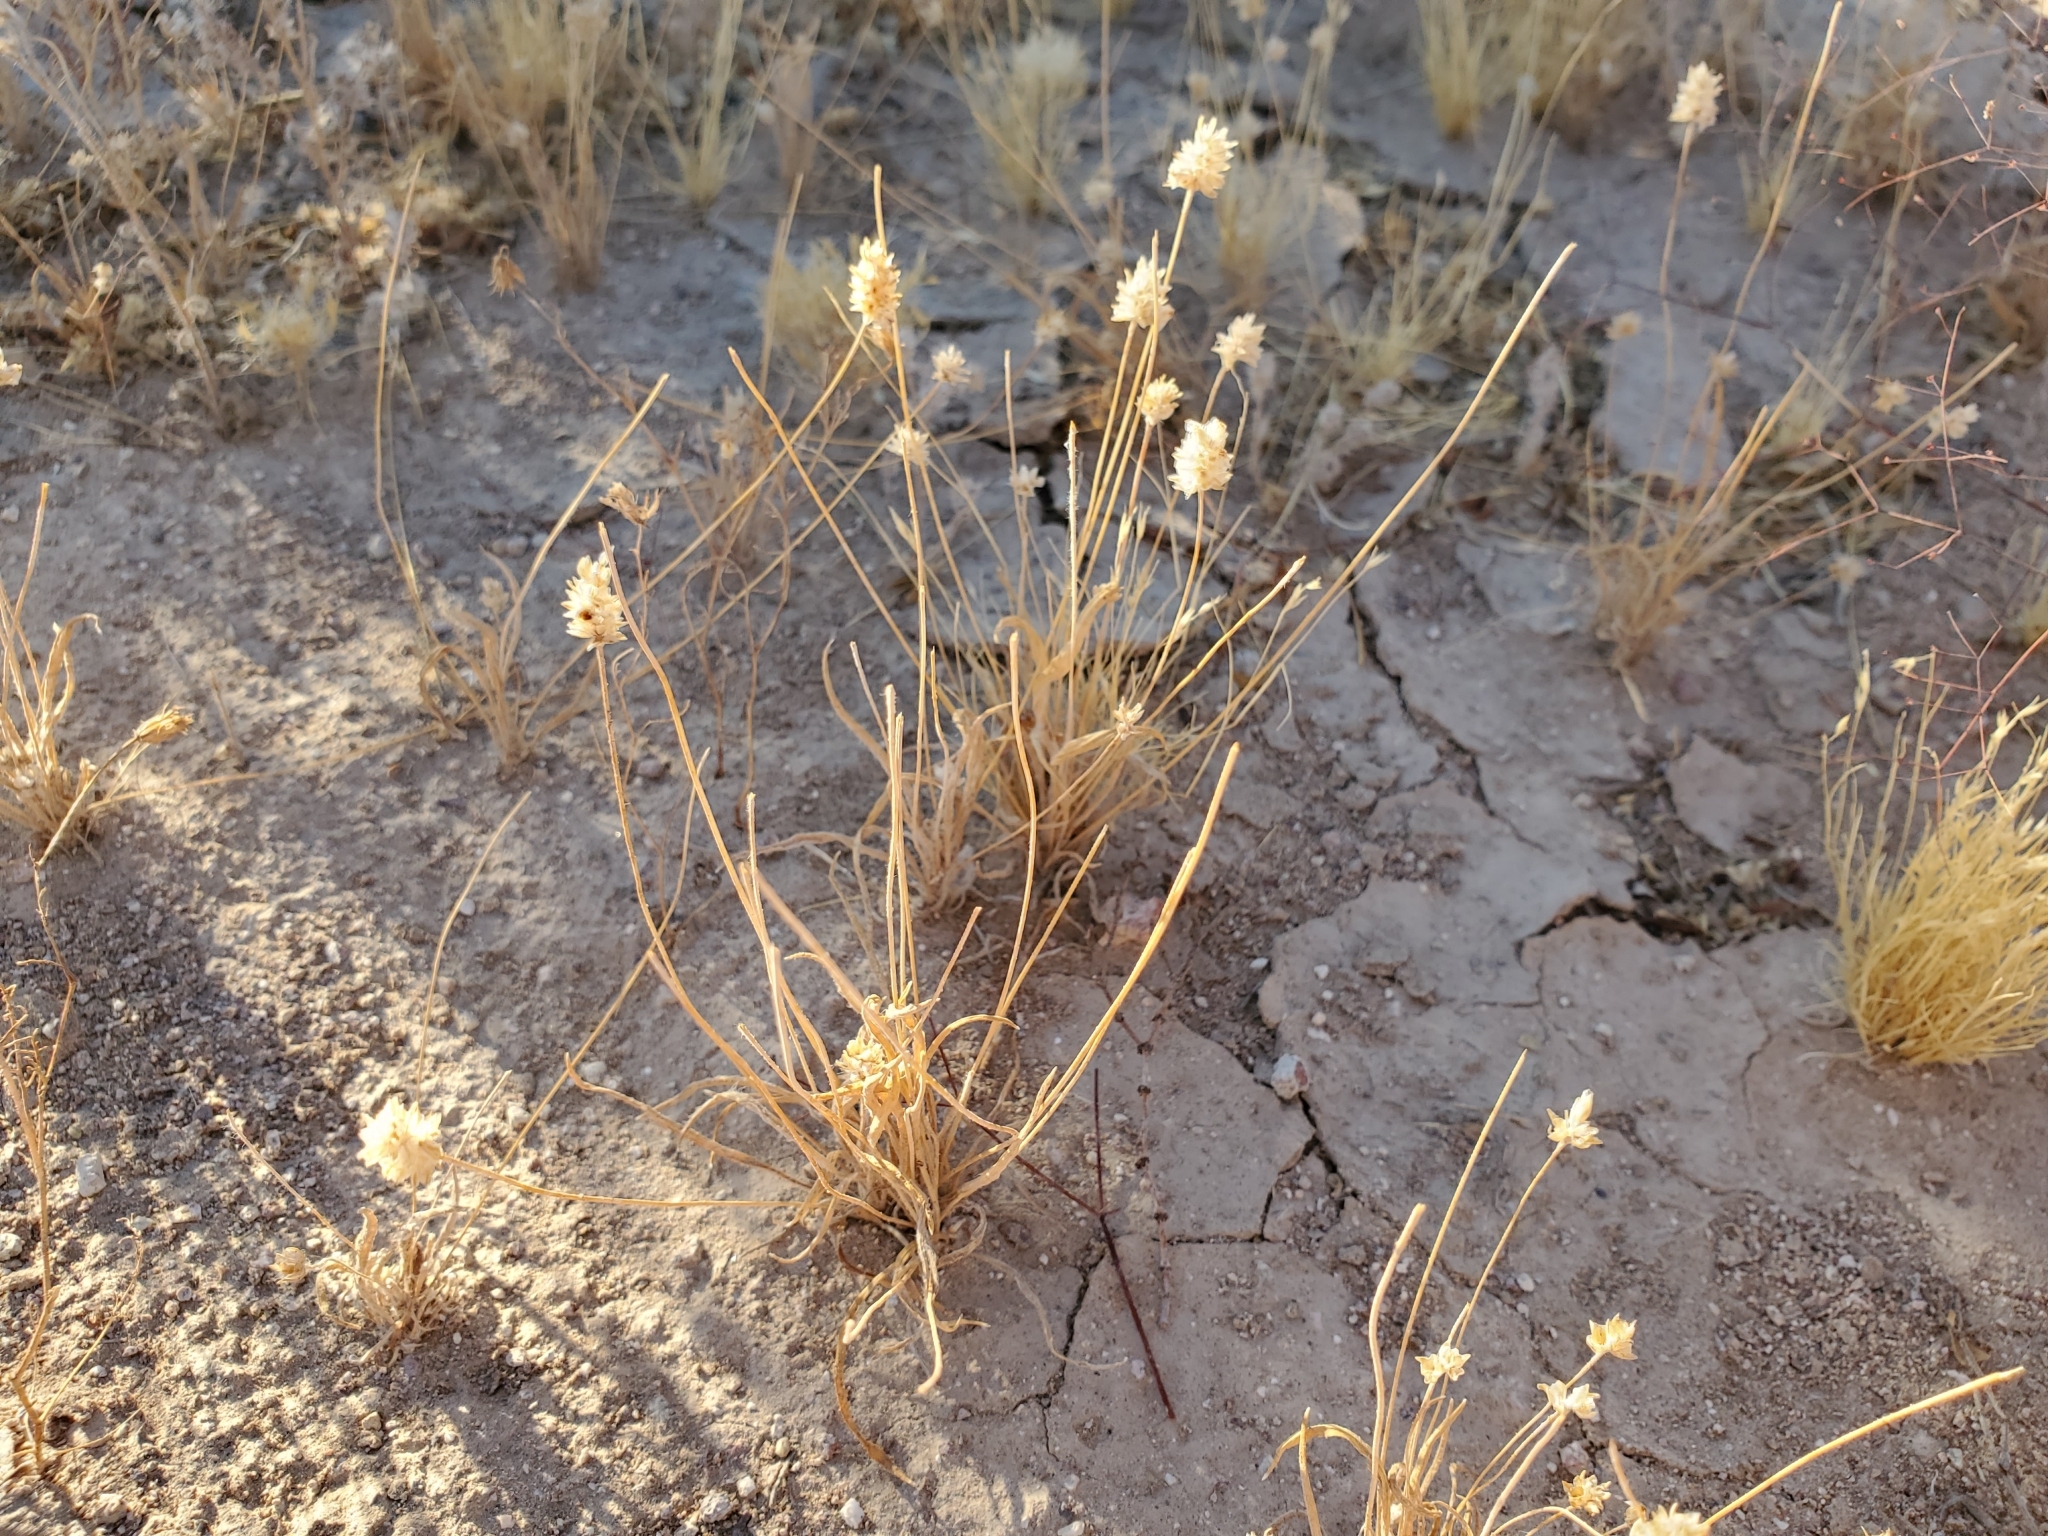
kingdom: Plantae
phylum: Tracheophyta
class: Magnoliopsida
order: Lamiales
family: Plantaginaceae
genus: Plantago
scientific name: Plantago ovata
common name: Blond plantain
